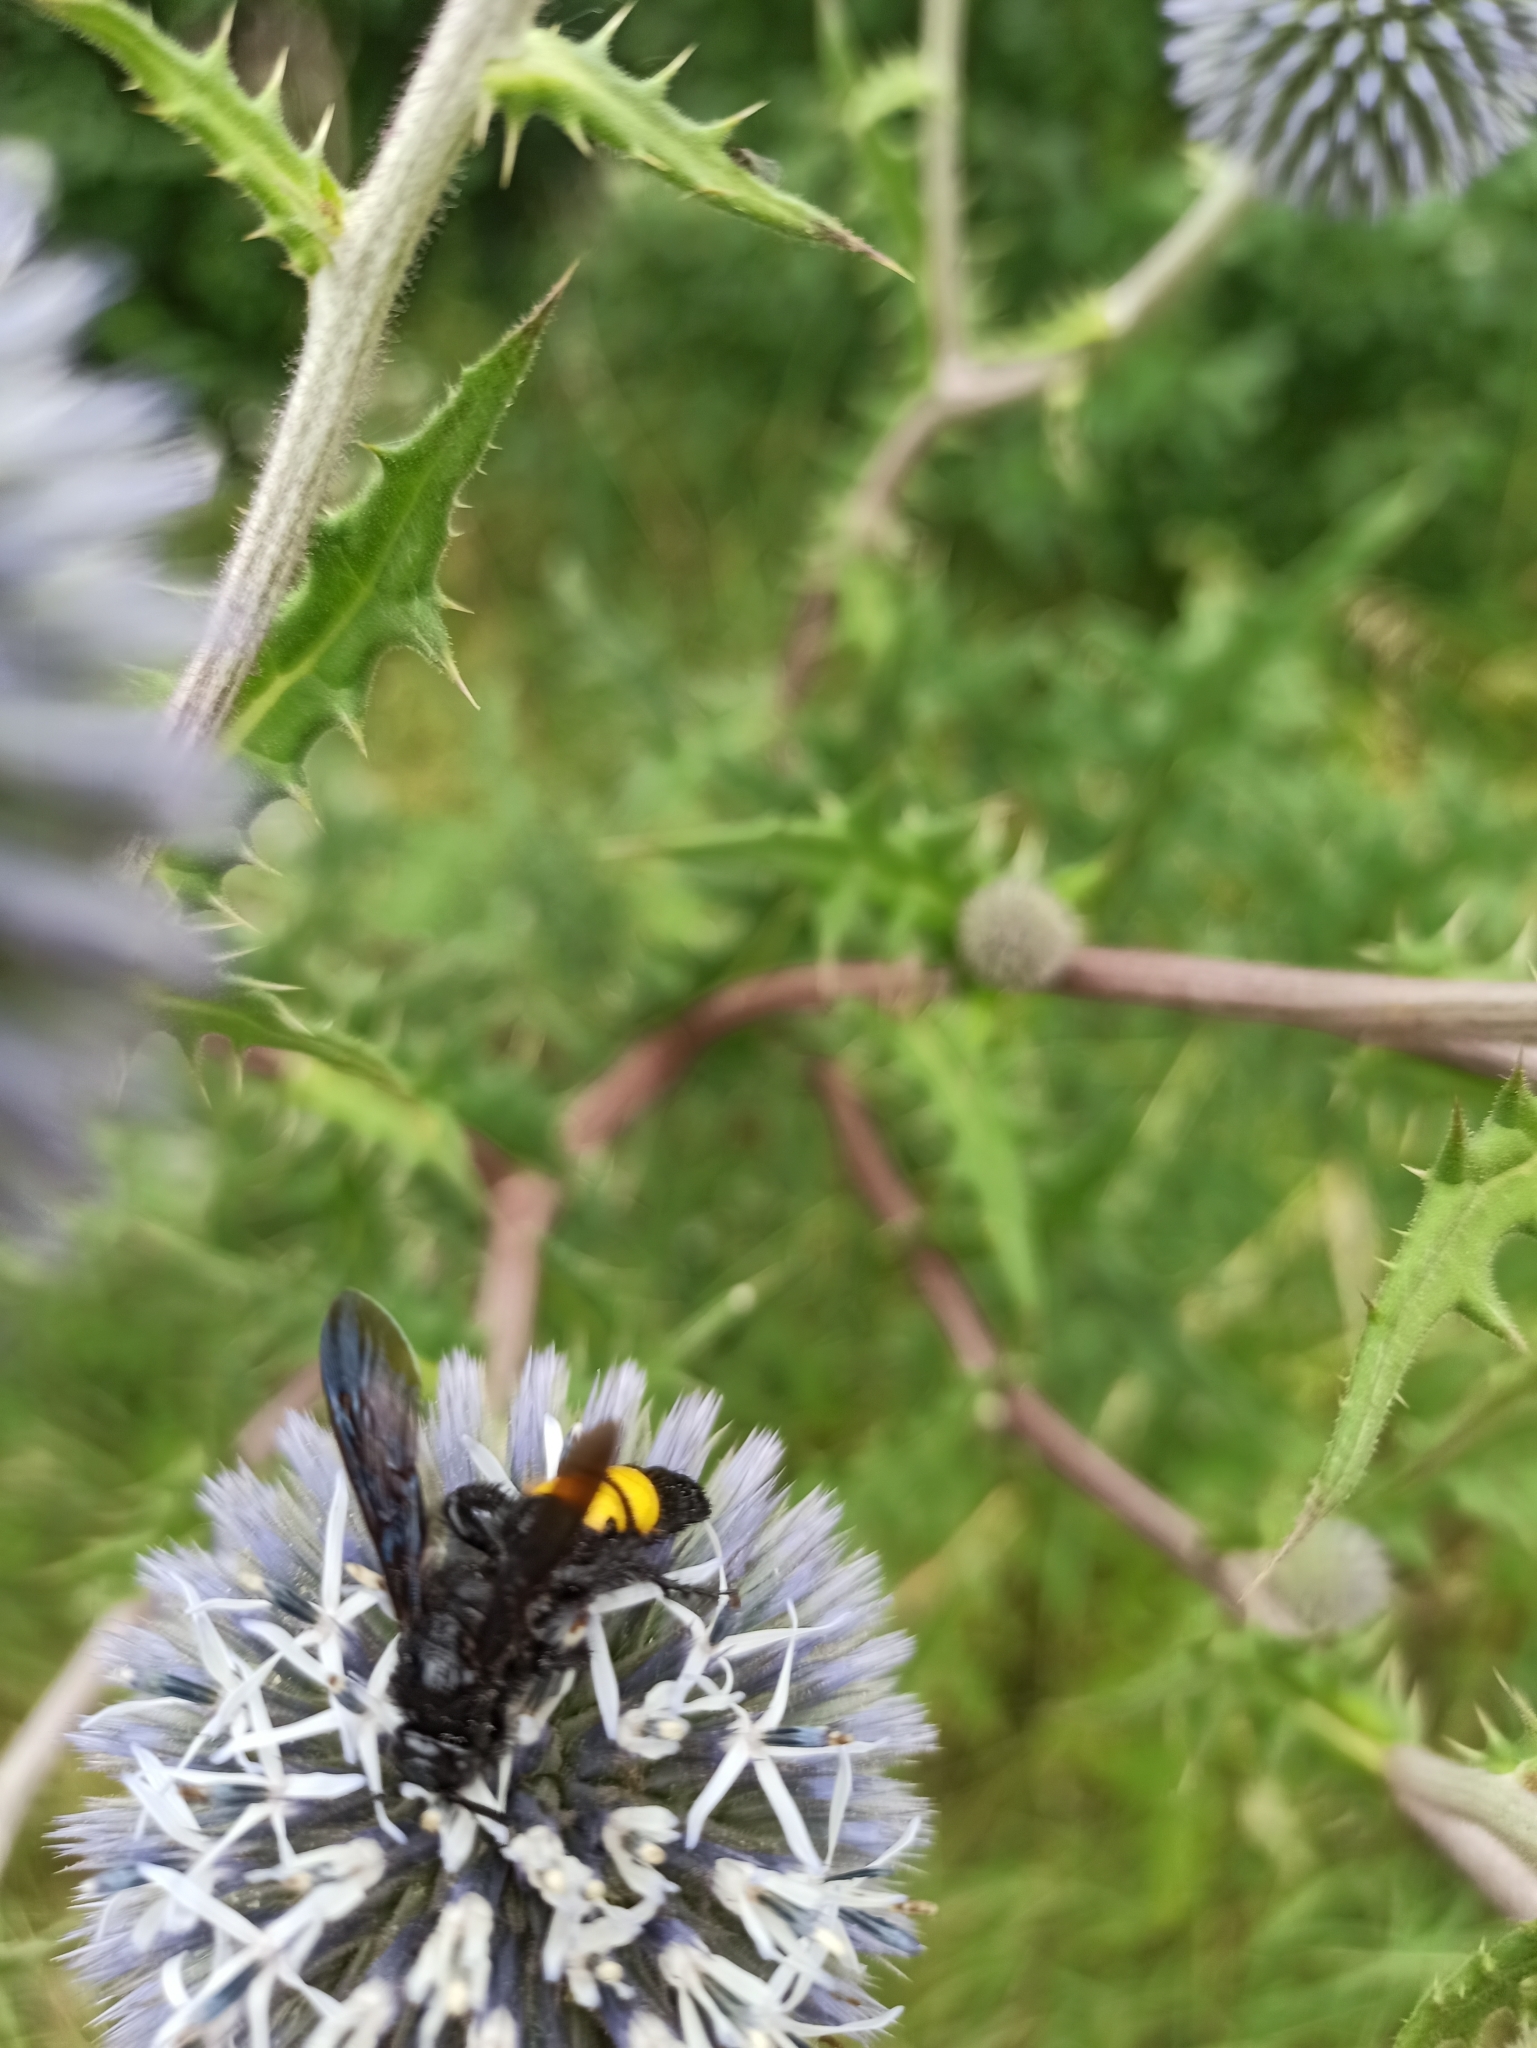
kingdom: Animalia
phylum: Arthropoda
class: Insecta
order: Hymenoptera
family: Scoliidae
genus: Scolia
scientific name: Scolia hirta
